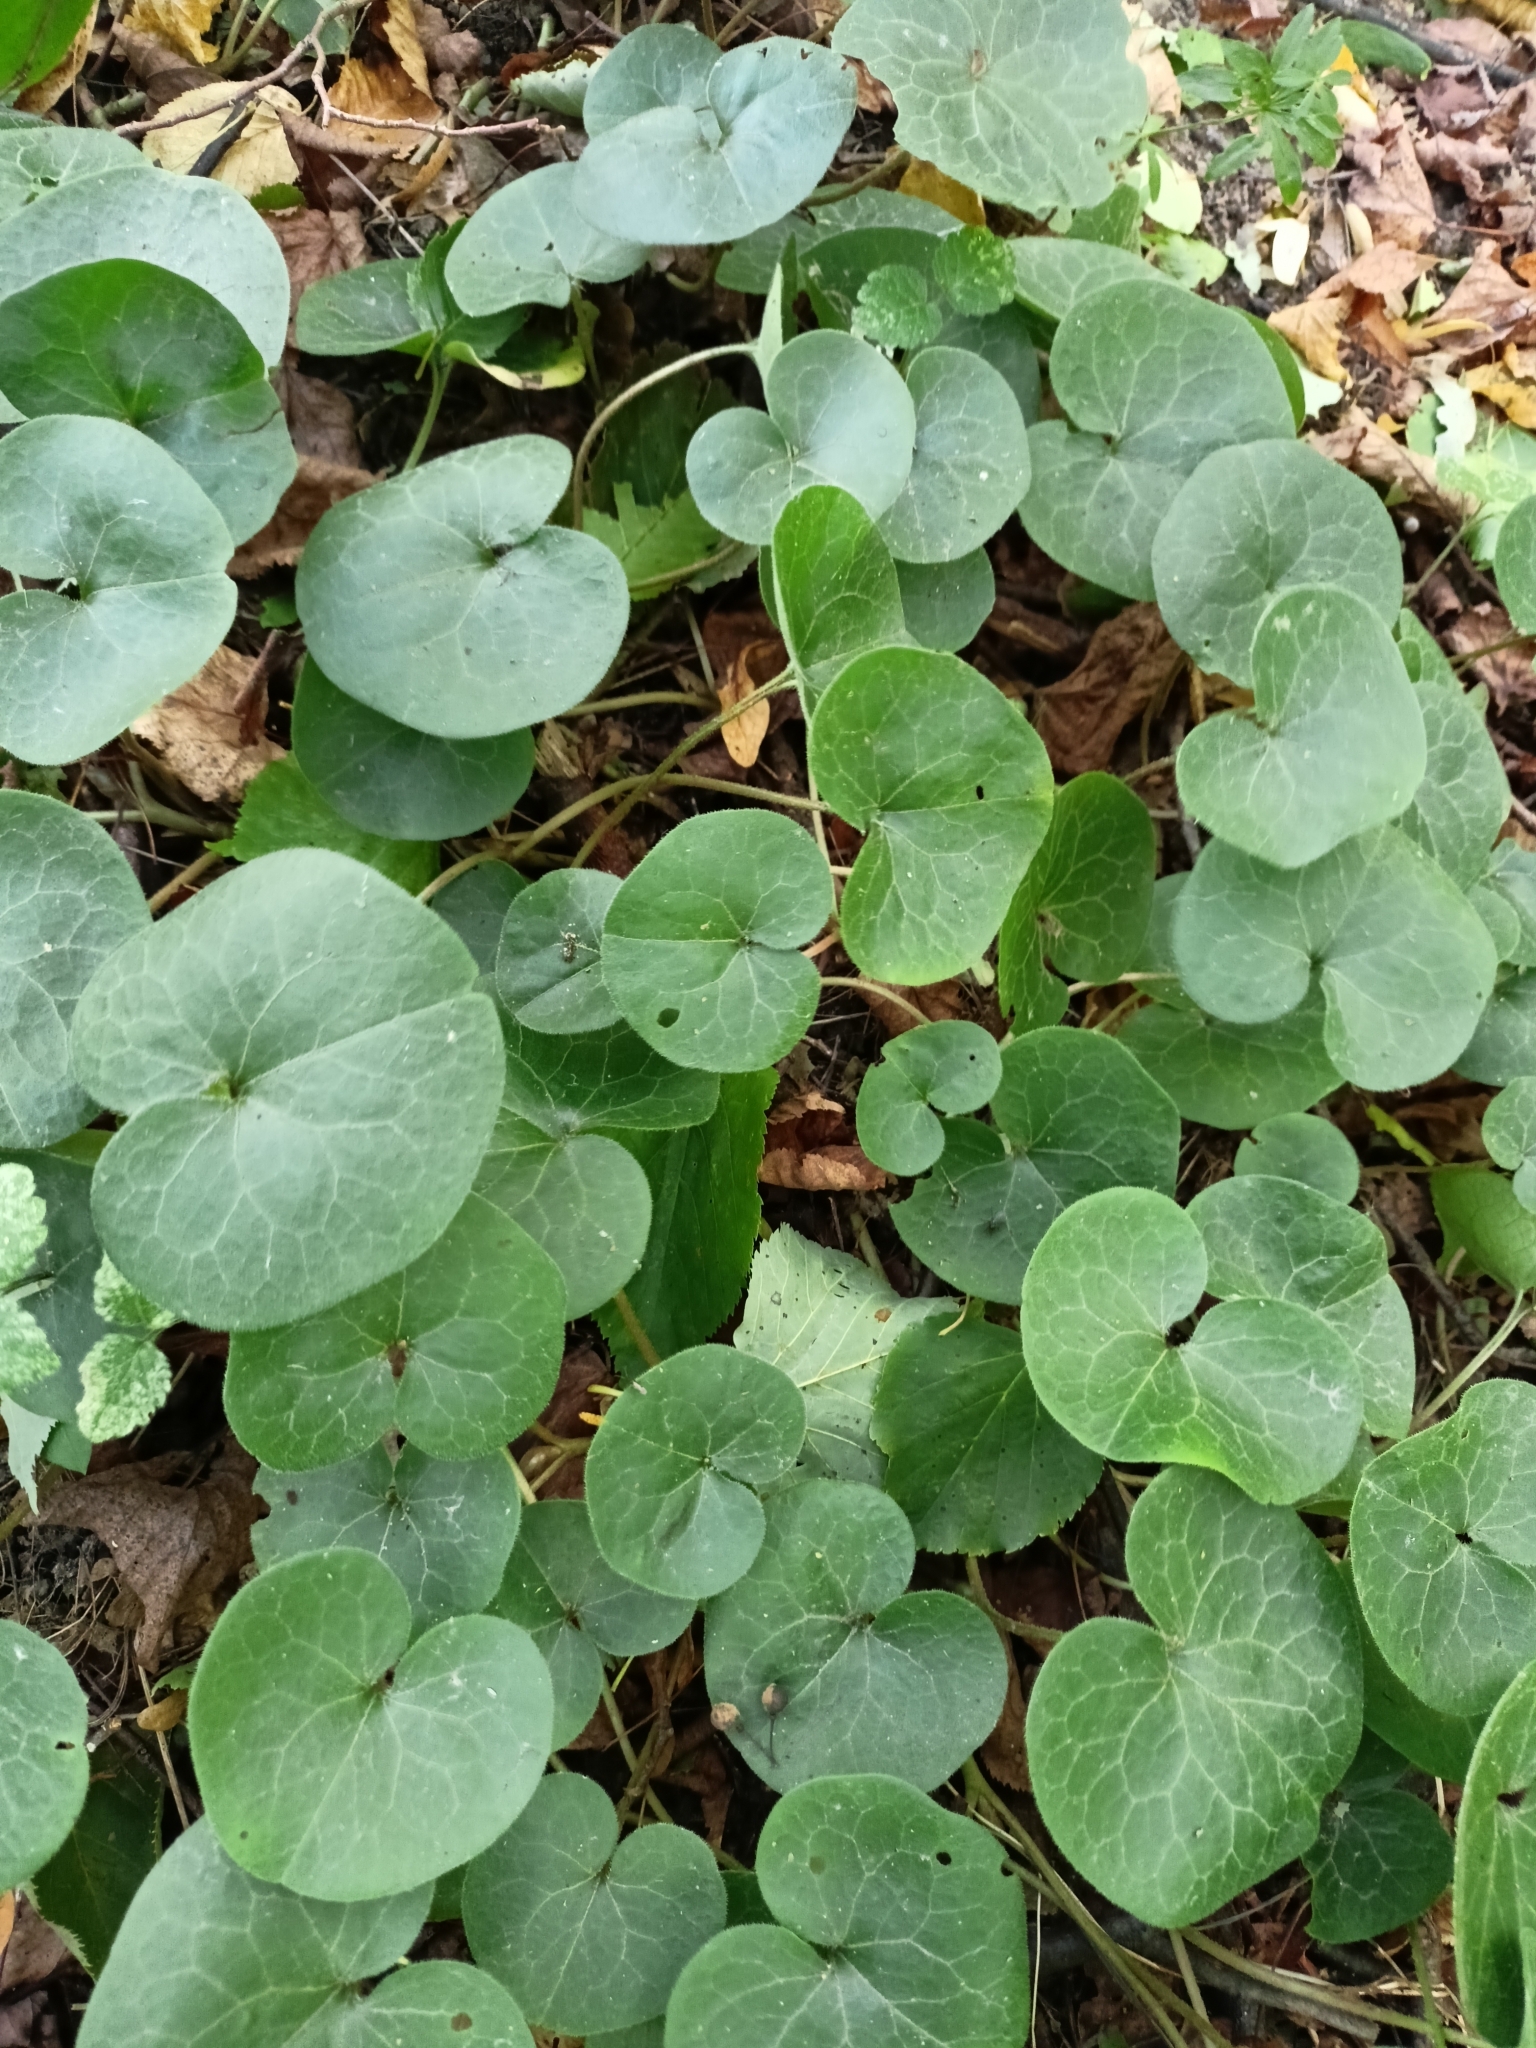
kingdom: Plantae
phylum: Tracheophyta
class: Magnoliopsida
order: Piperales
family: Aristolochiaceae
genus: Asarum
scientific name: Asarum europaeum
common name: Asarabacca
